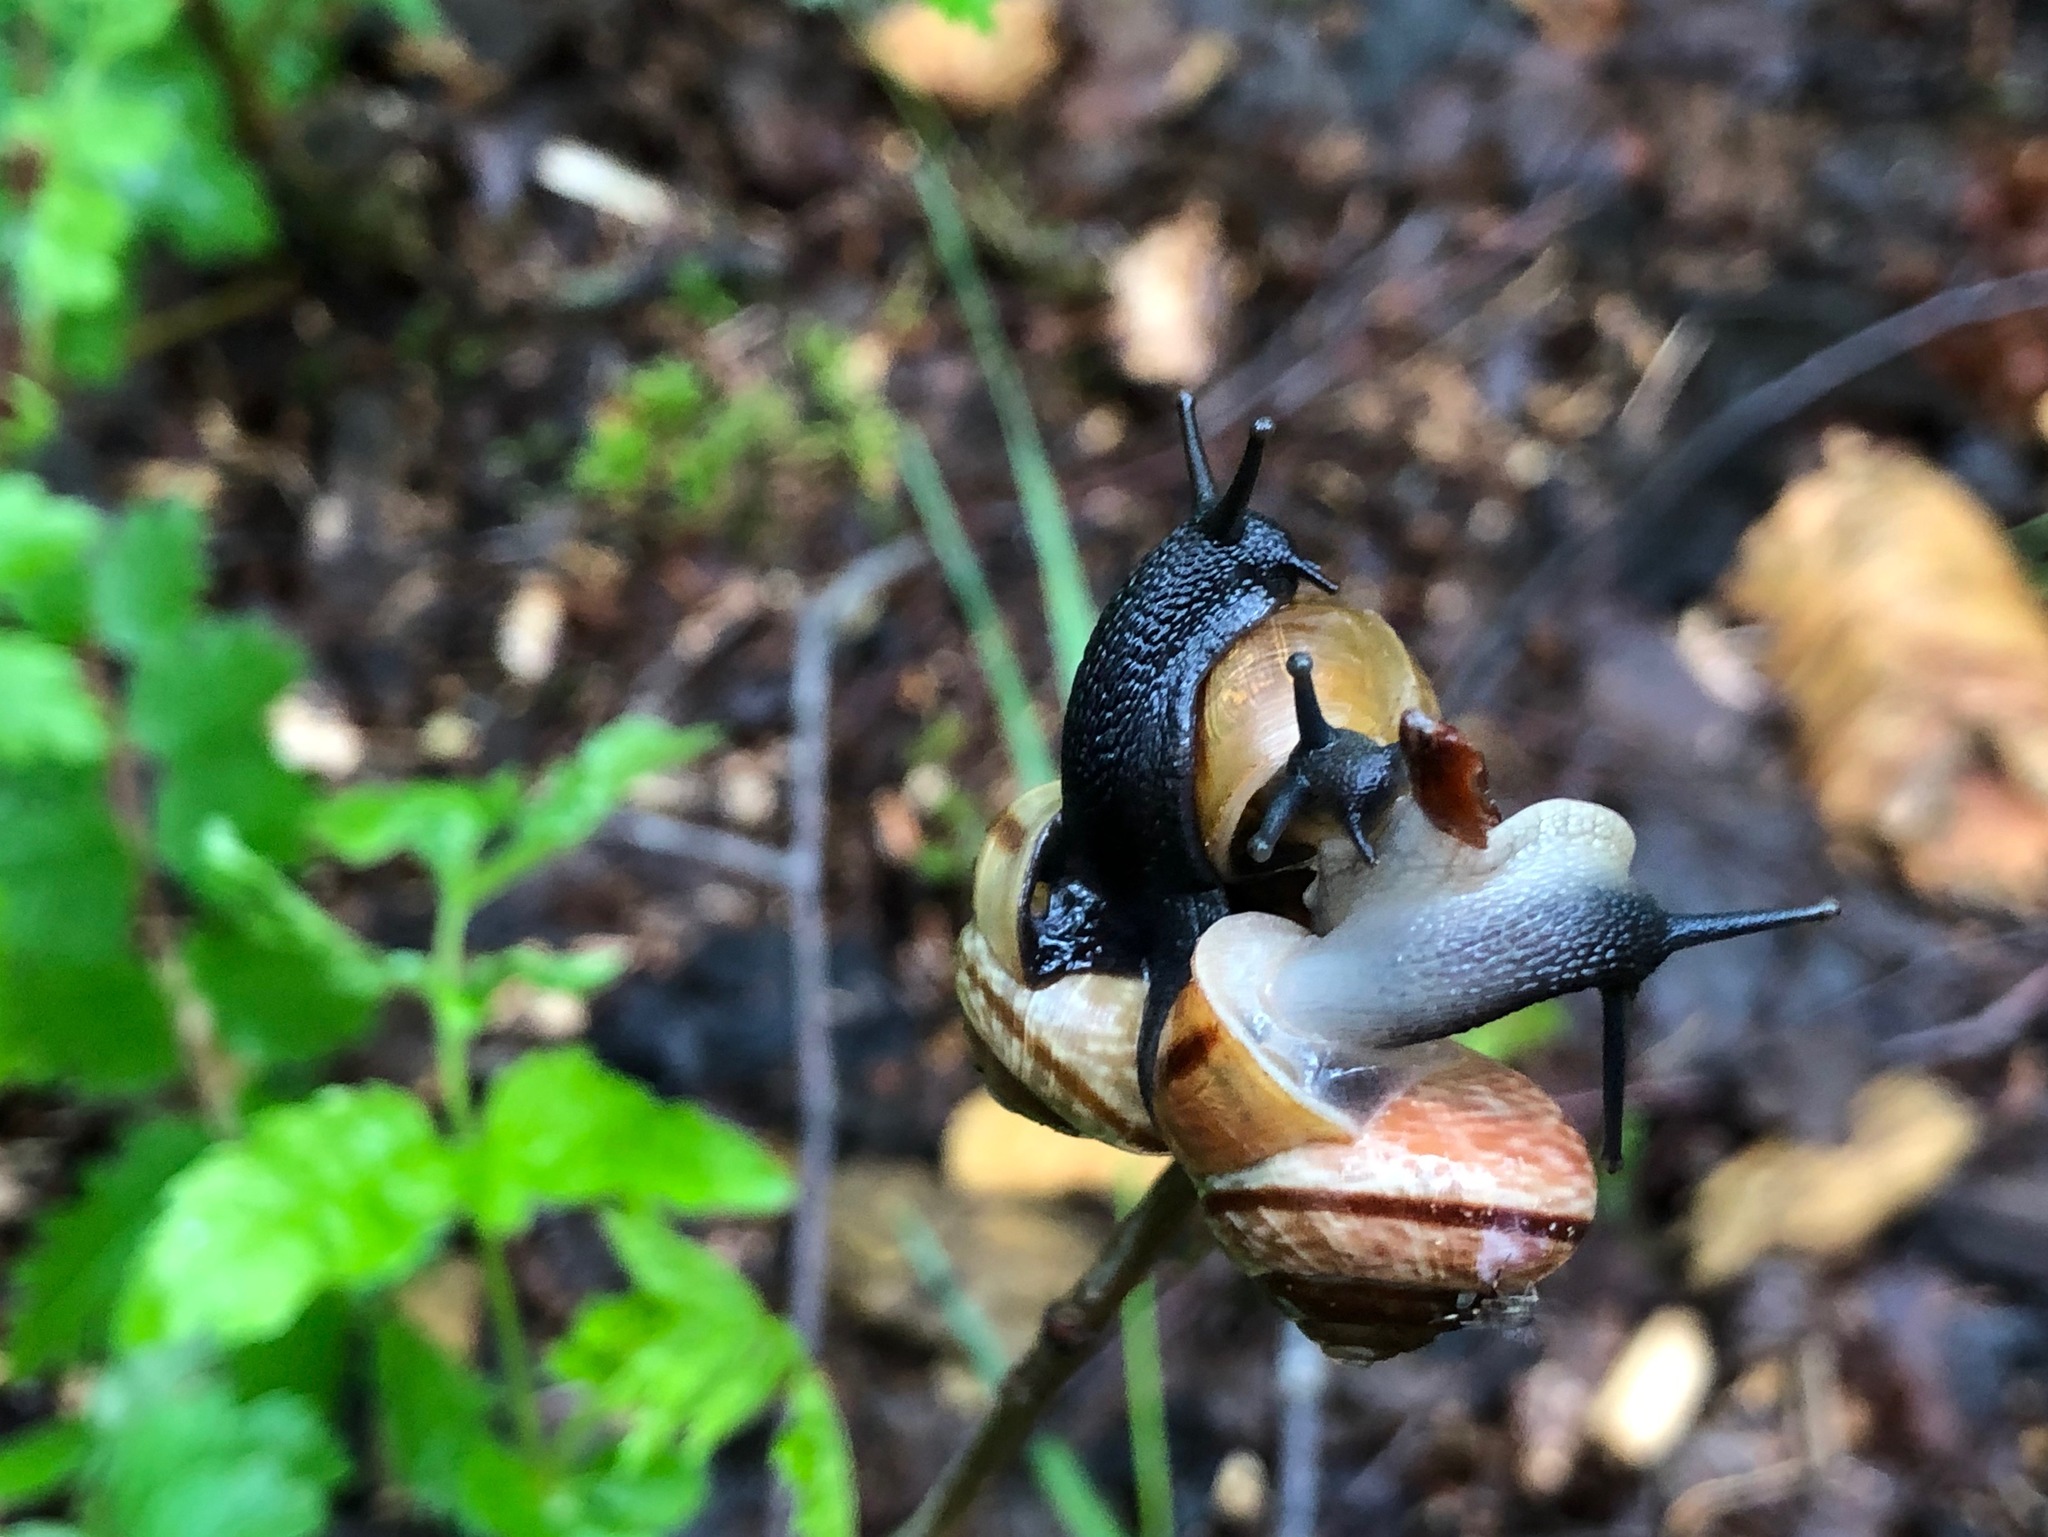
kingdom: Animalia
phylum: Mollusca
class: Gastropoda
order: Stylommatophora
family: Helicidae
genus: Arianta
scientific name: Arianta arbustorum
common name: Copse snail
